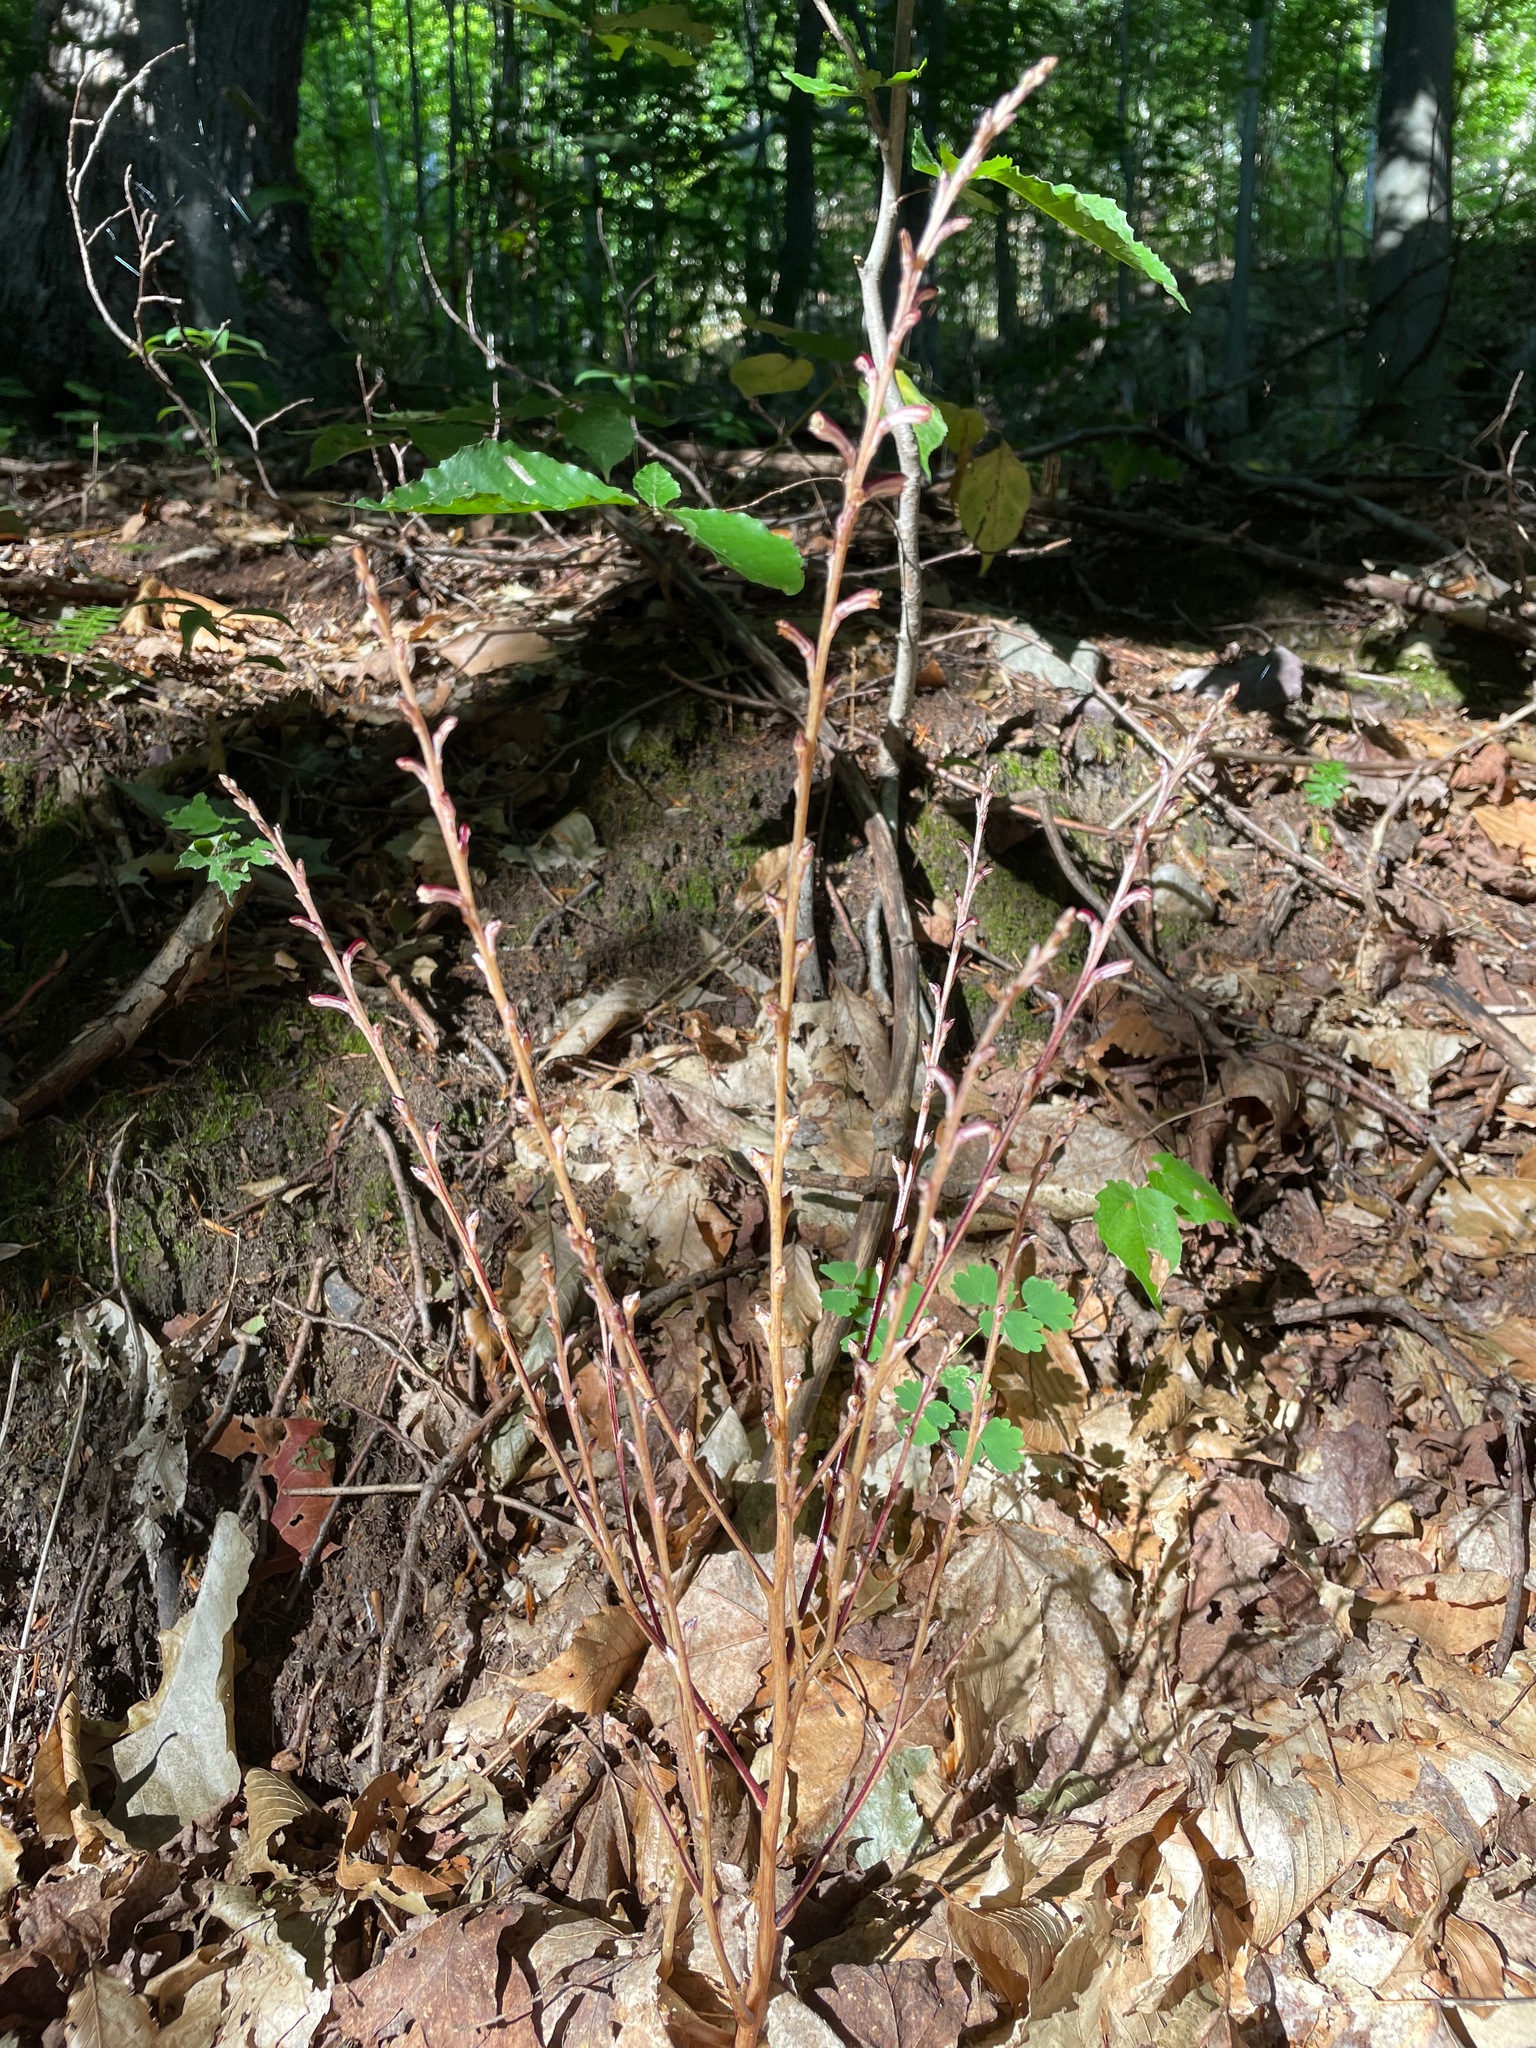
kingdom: Plantae
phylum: Tracheophyta
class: Magnoliopsida
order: Lamiales
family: Orobanchaceae
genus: Epifagus
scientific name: Epifagus virginiana
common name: Beechdrops
